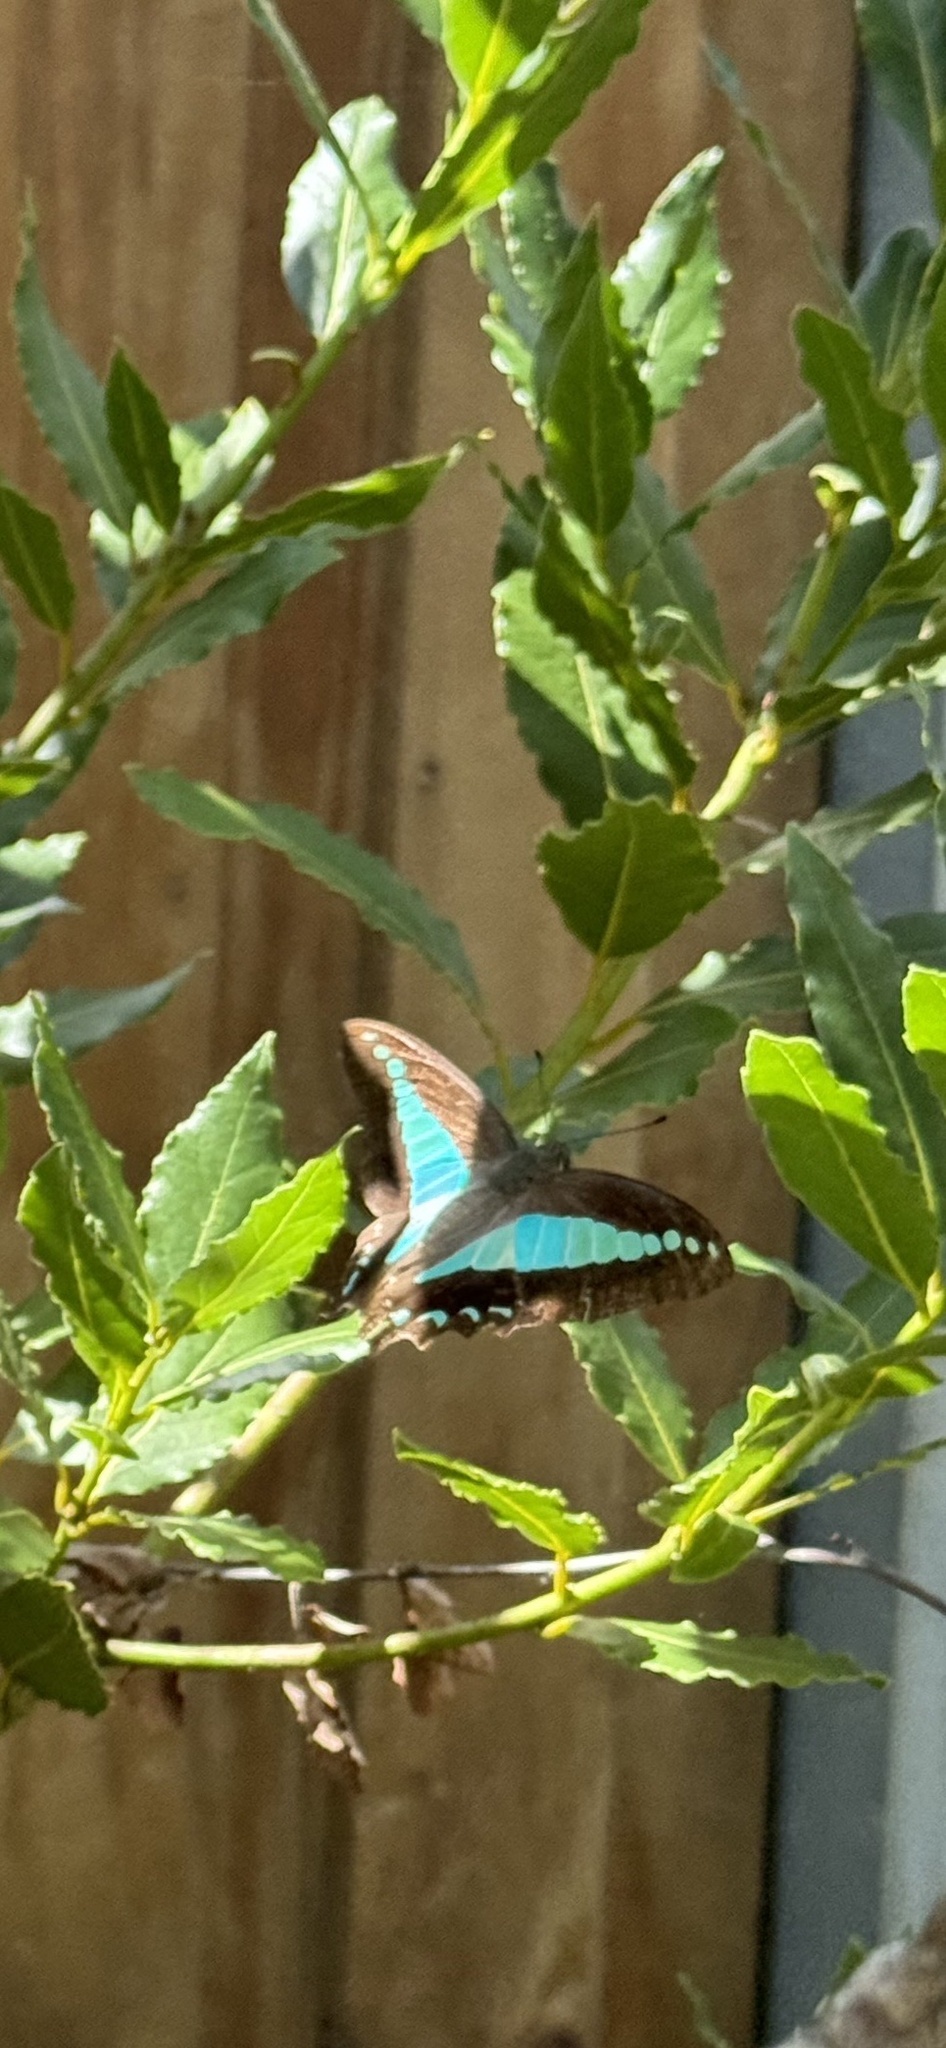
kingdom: Animalia
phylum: Arthropoda
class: Insecta
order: Lepidoptera
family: Papilionidae
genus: Graphium
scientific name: Graphium
